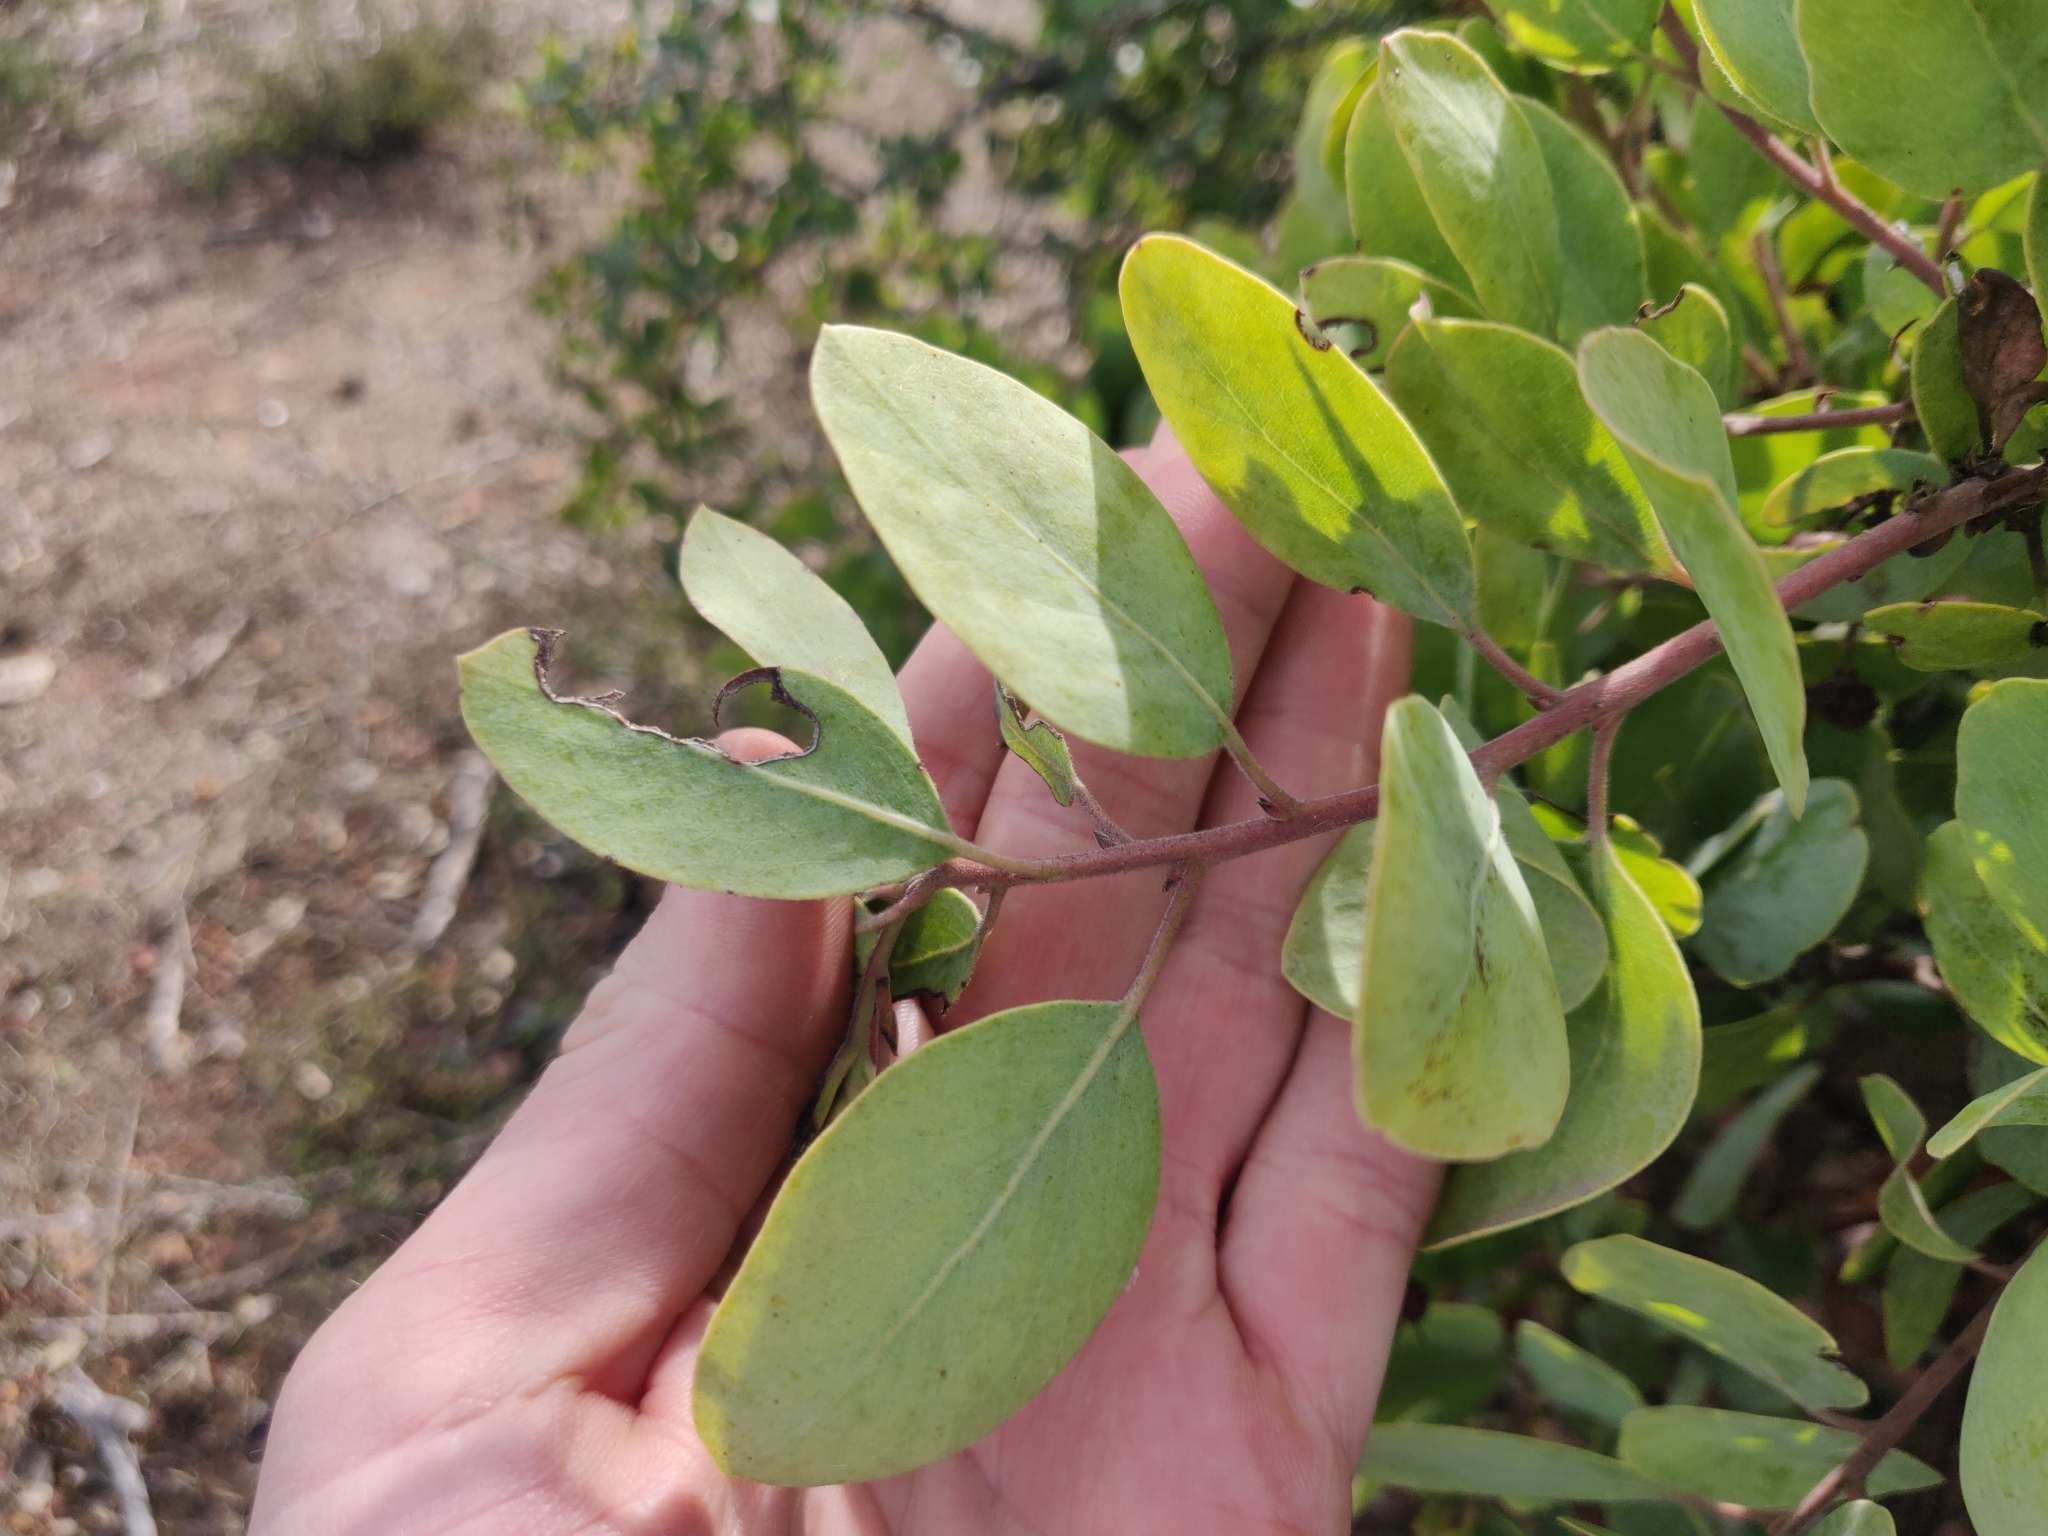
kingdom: Plantae
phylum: Tracheophyta
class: Magnoliopsida
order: Ericales
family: Ericaceae
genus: Arctostaphylos
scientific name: Arctostaphylos glandulosa
